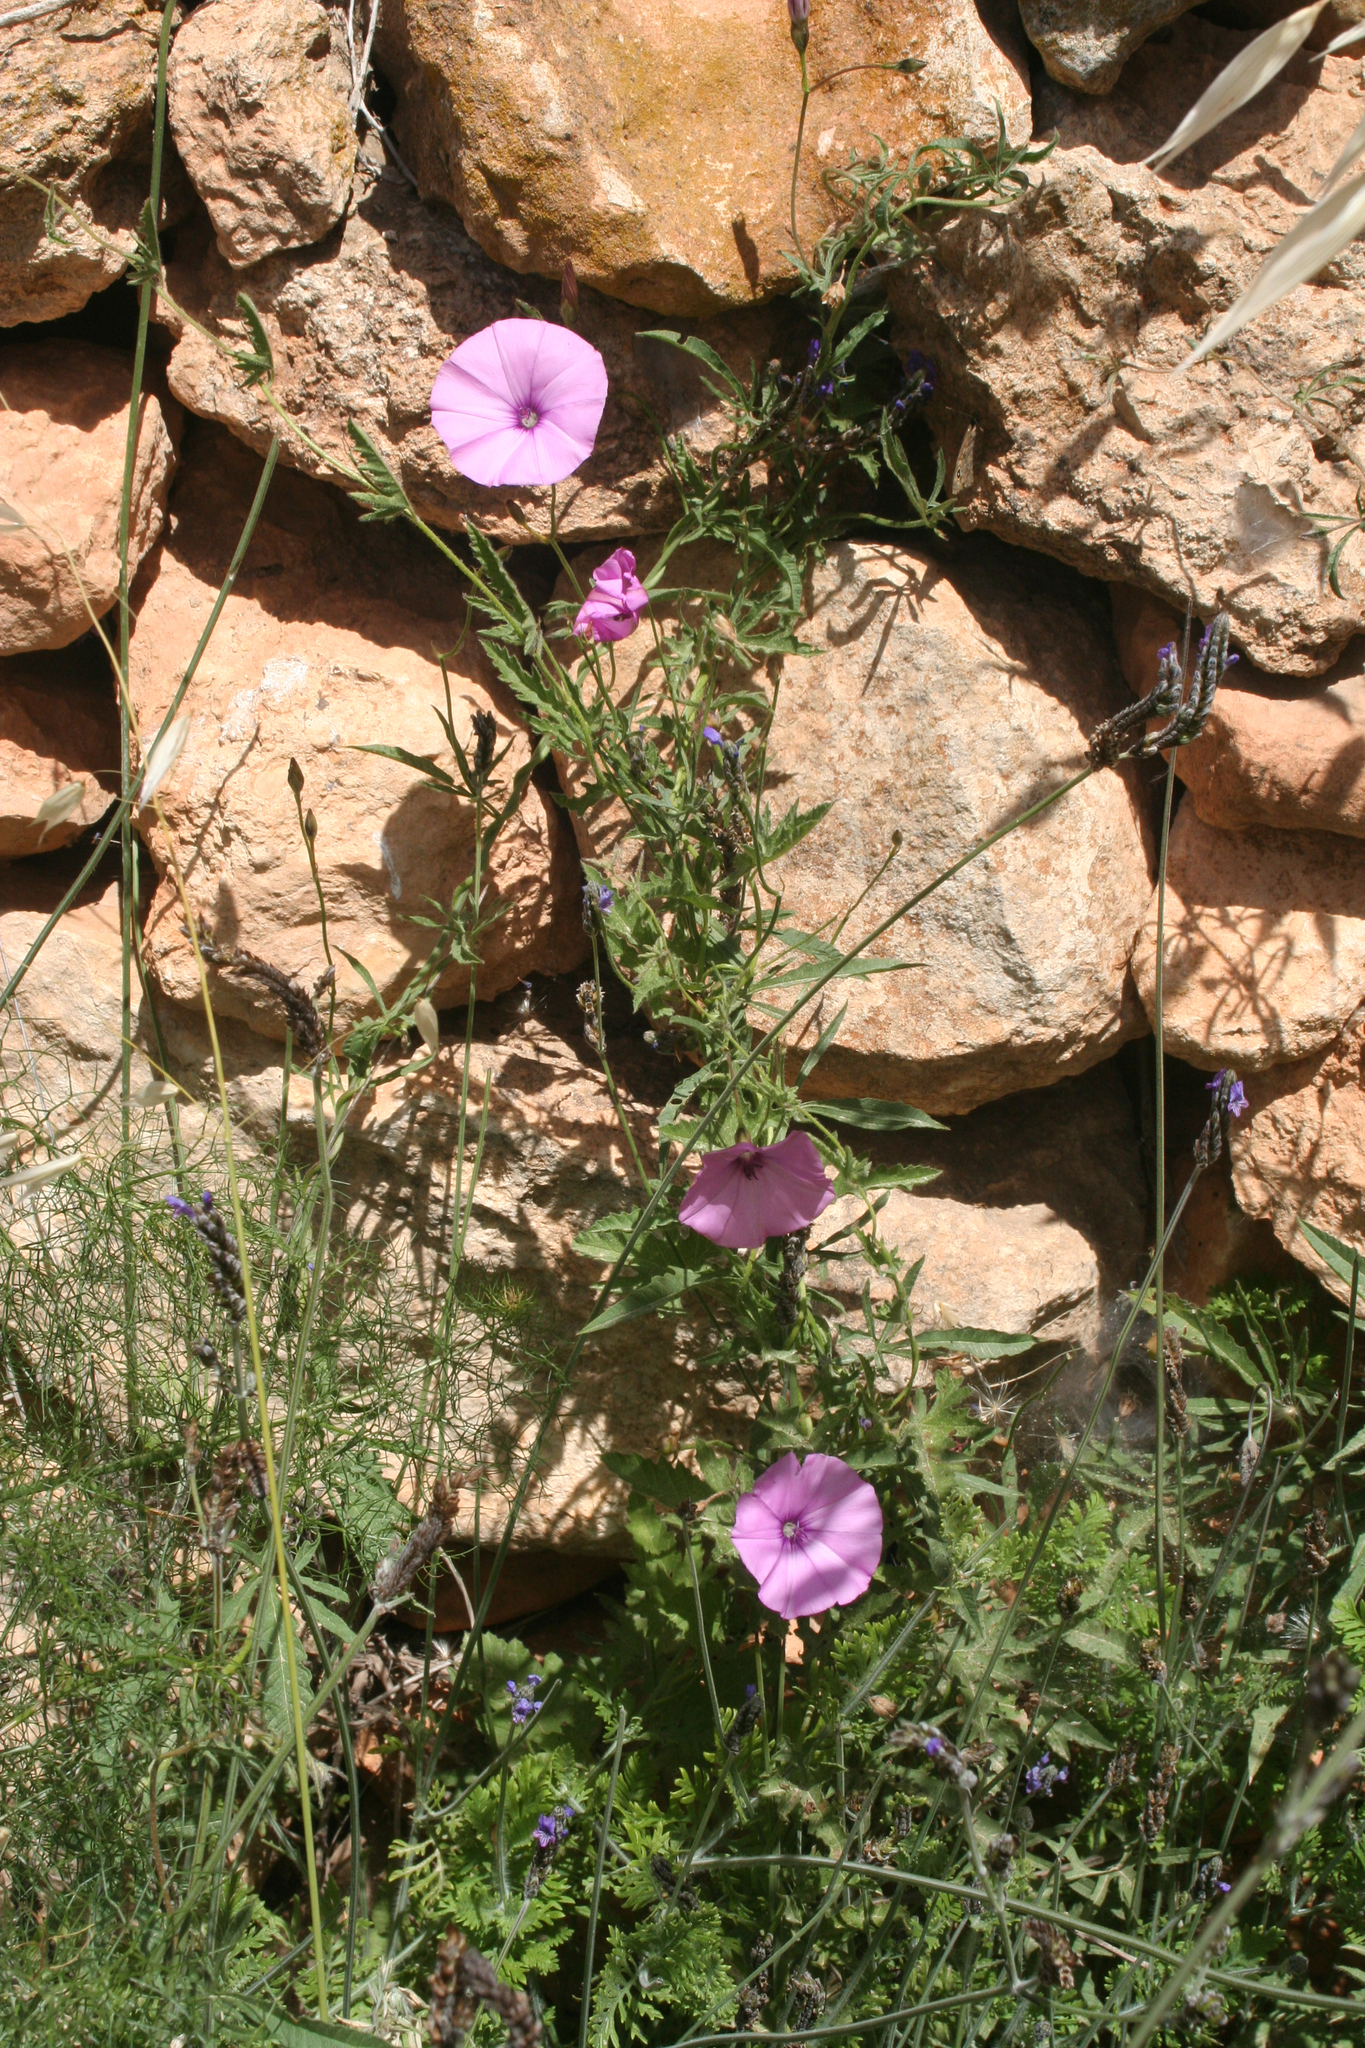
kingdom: Plantae
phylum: Tracheophyta
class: Magnoliopsida
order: Solanales
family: Convolvulaceae
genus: Convolvulus
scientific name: Convolvulus althaeoides
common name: Mallow bindweed
